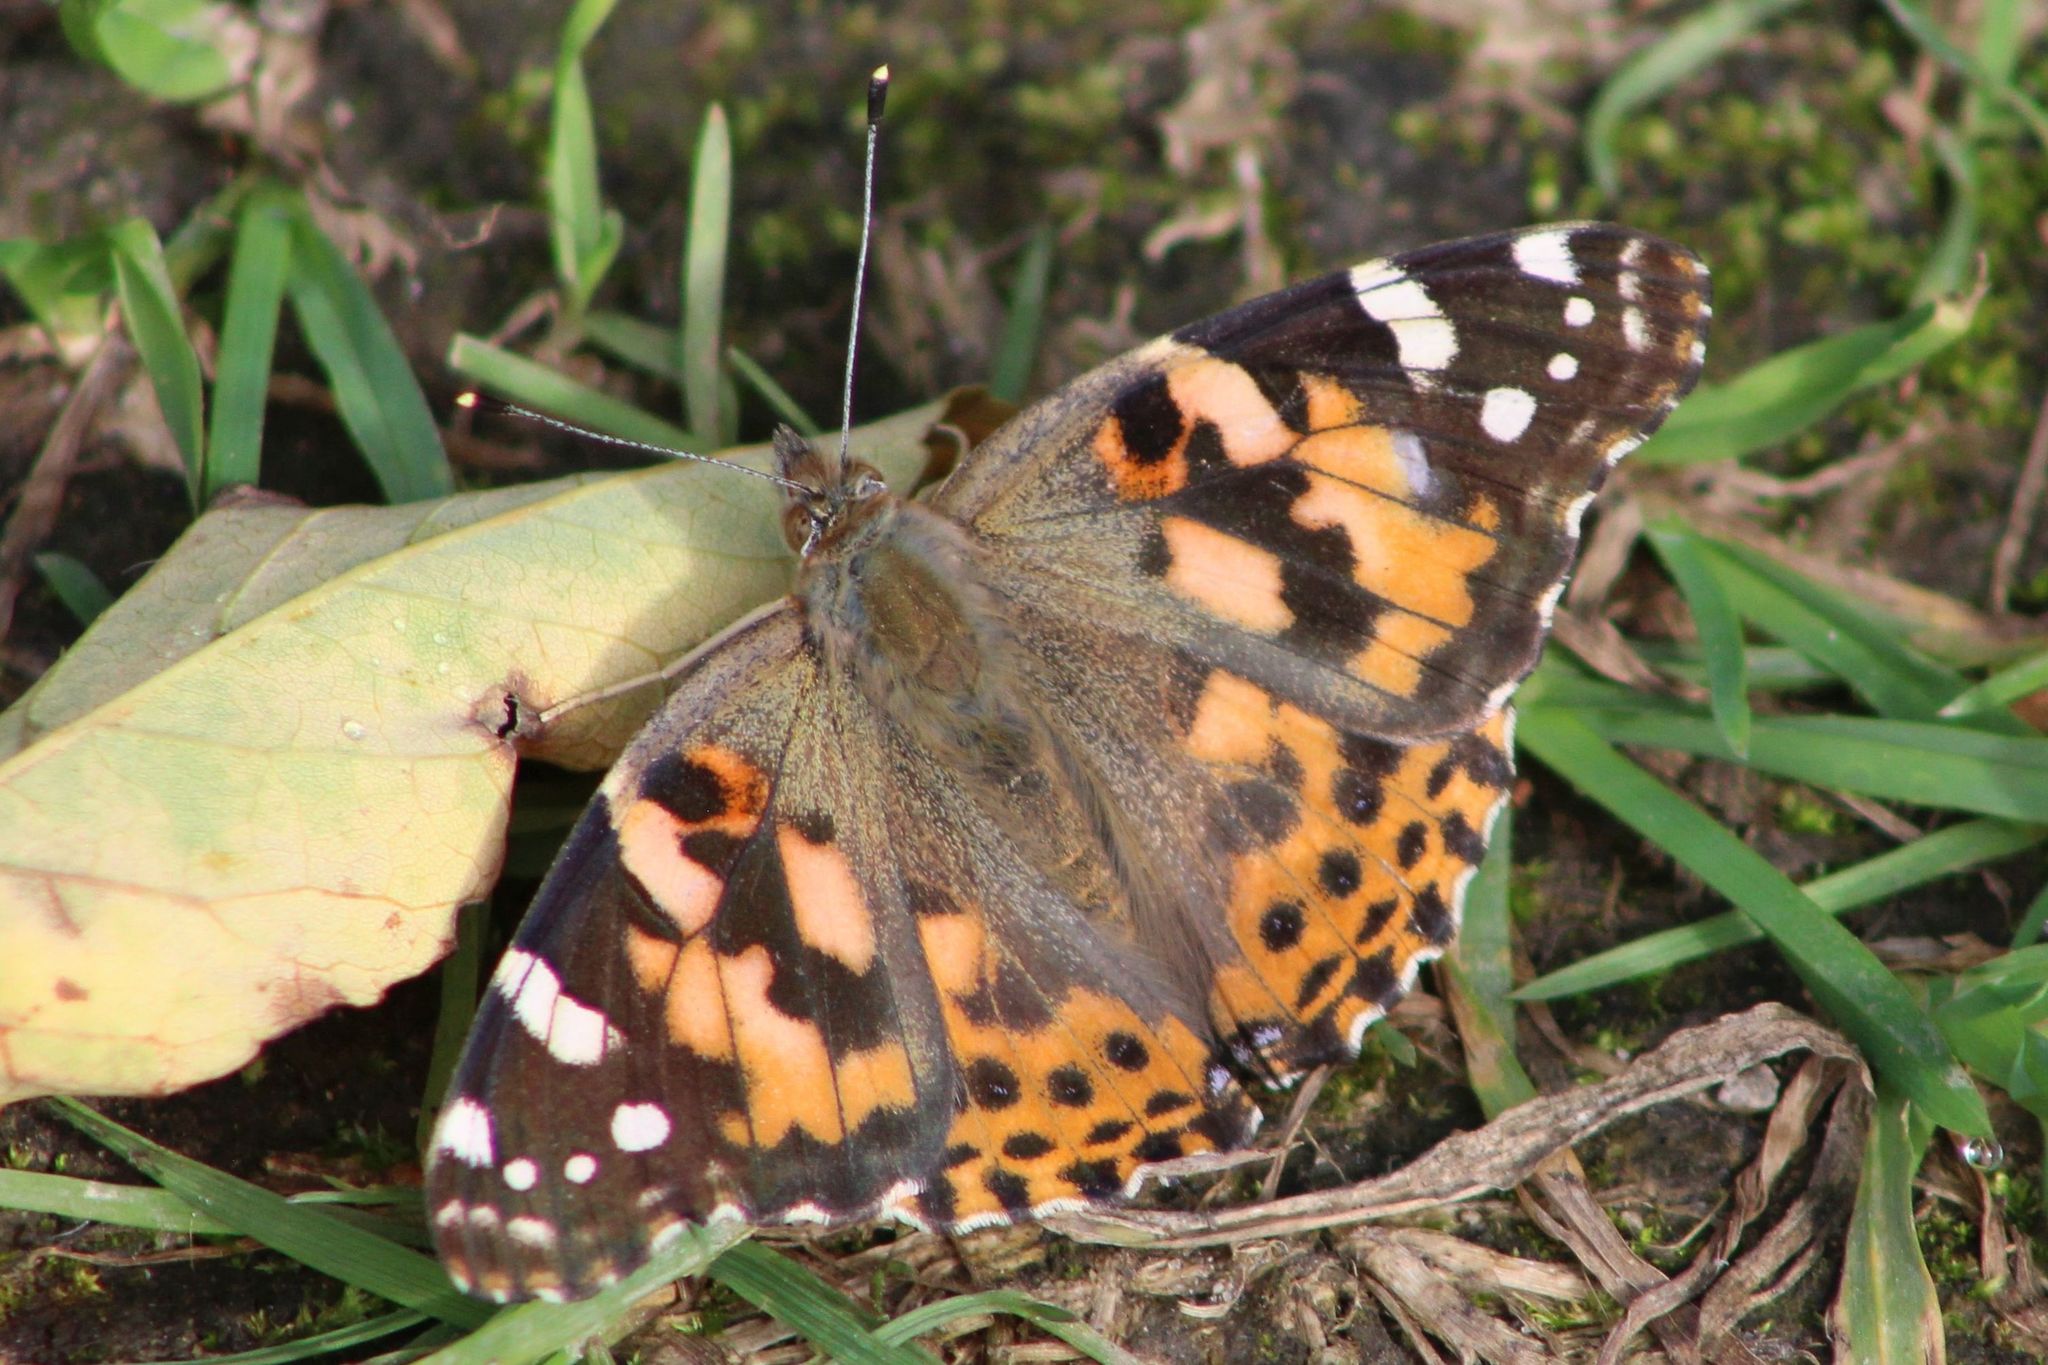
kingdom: Animalia
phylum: Arthropoda
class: Insecta
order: Lepidoptera
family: Nymphalidae
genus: Vanessa
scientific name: Vanessa cardui
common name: Painted lady
